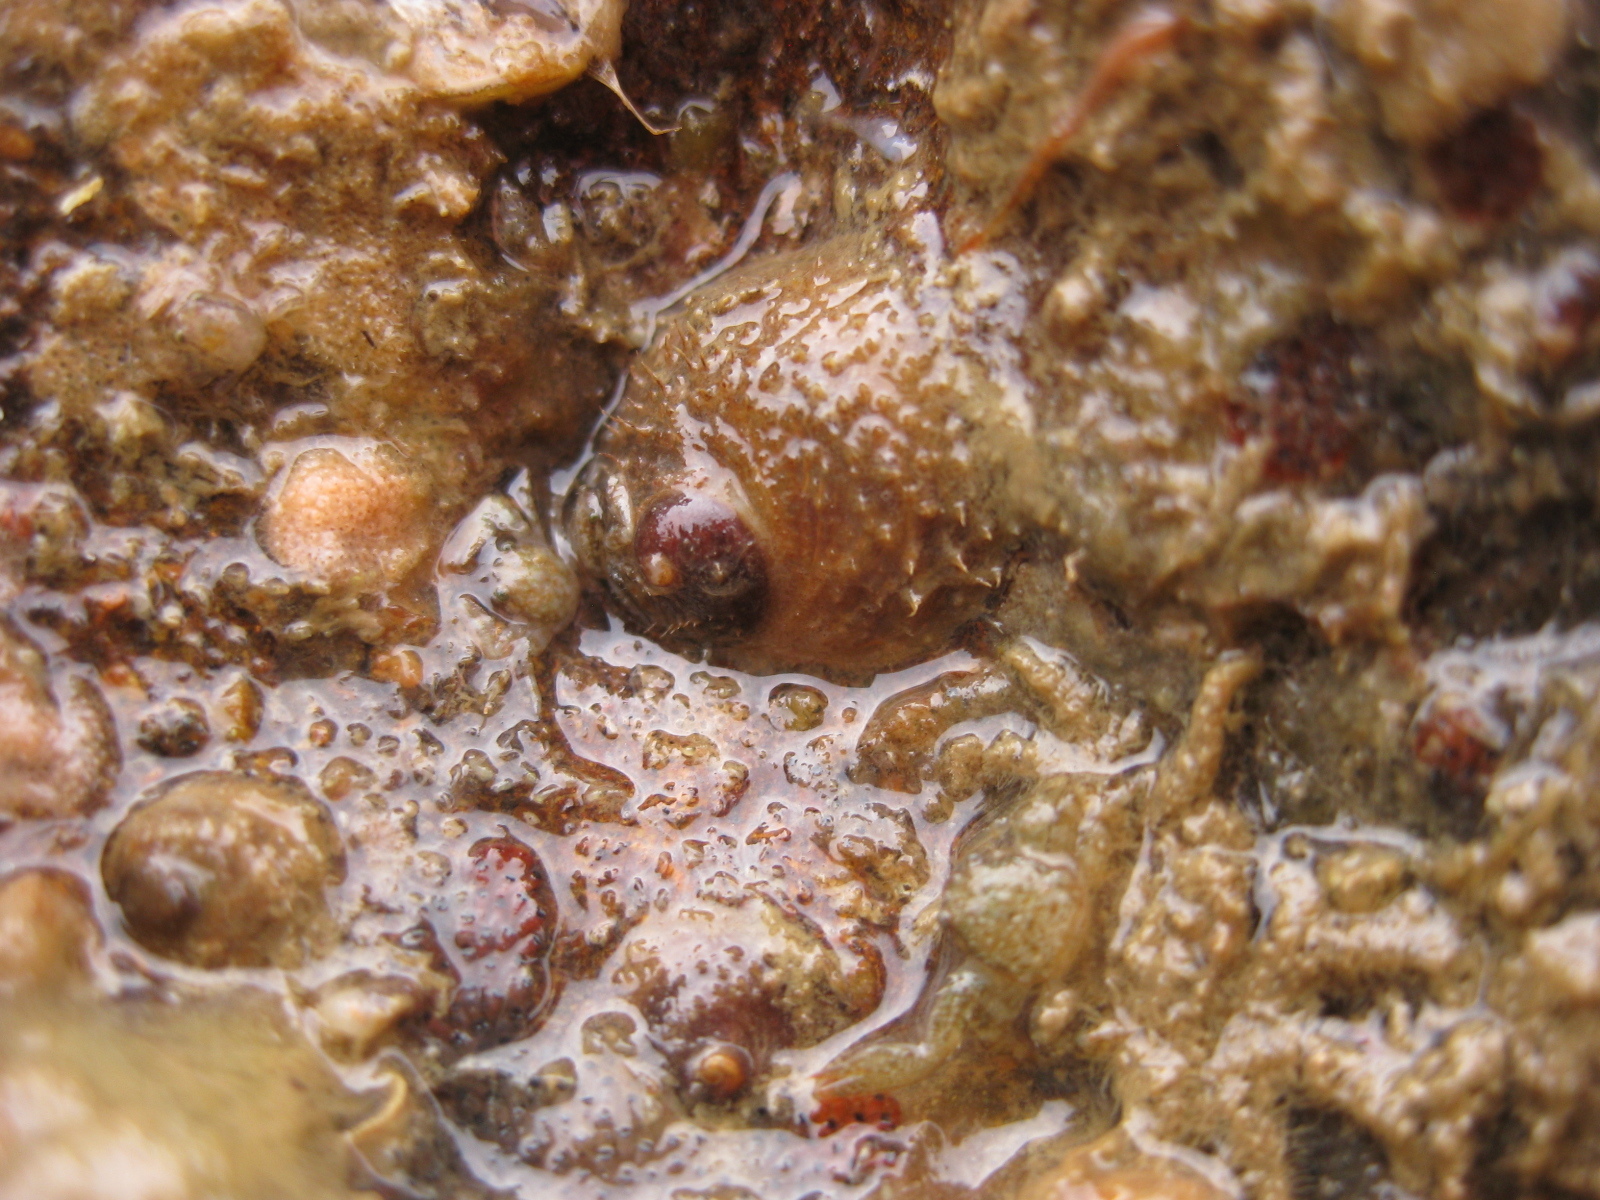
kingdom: Animalia
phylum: Mollusca
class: Gastropoda
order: Littorinimorpha
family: Calyptraeidae
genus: Sigapatella
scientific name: Sigapatella novaezelandiae
